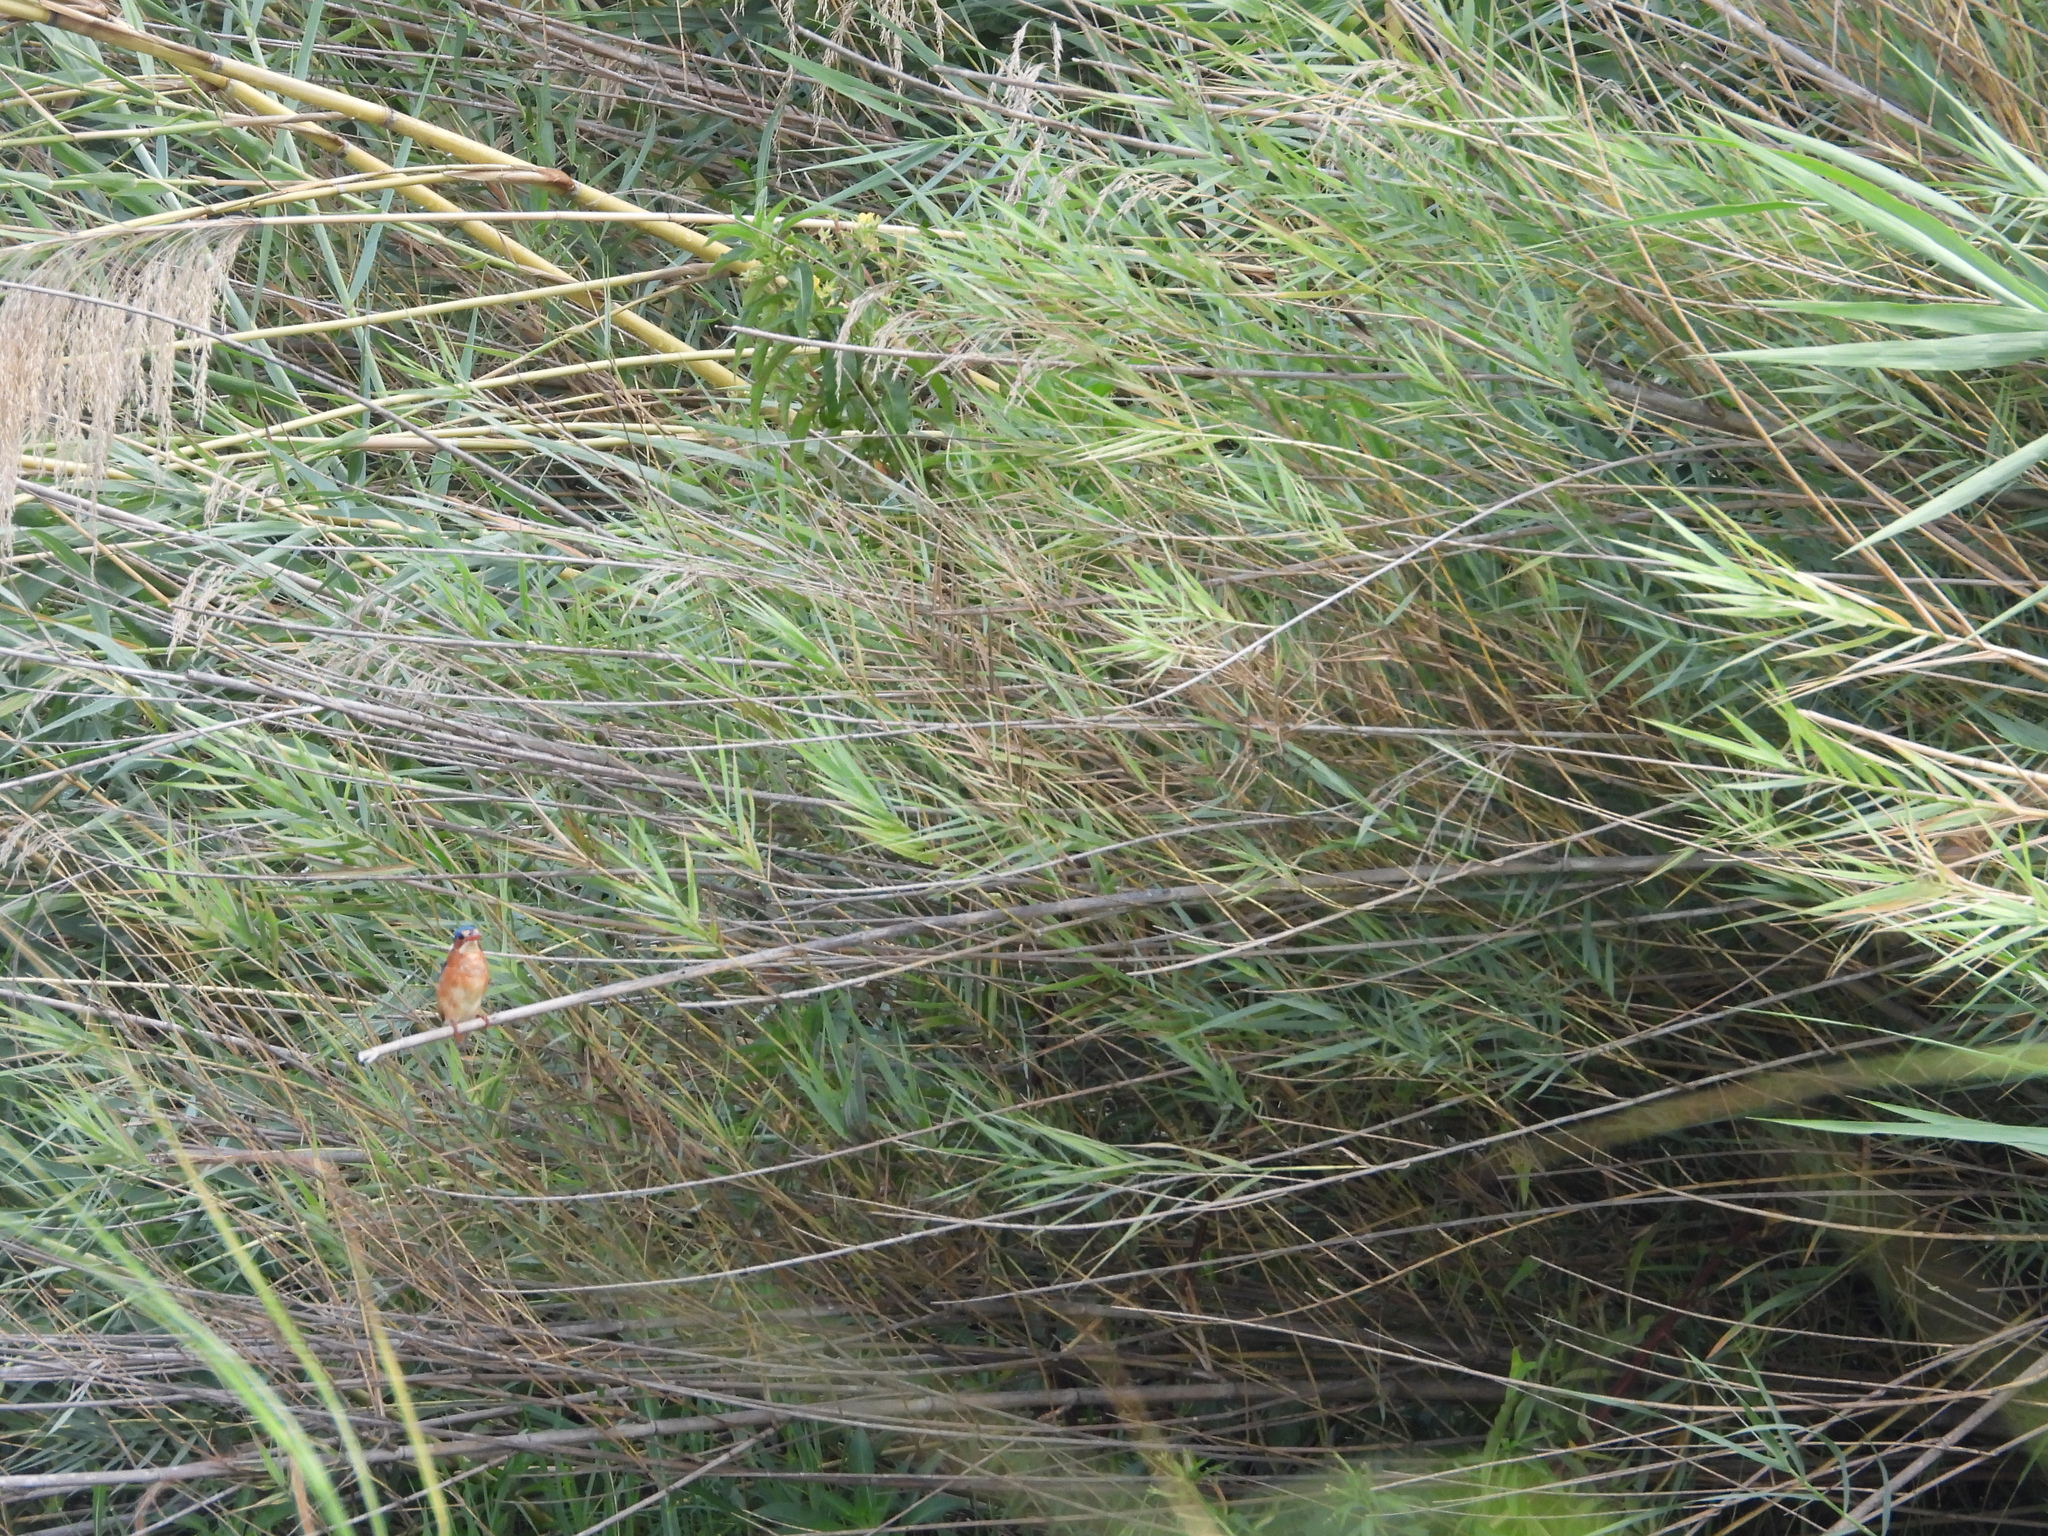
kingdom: Animalia
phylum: Chordata
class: Aves
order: Coraciiformes
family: Alcedinidae
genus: Corythornis
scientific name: Corythornis cristatus
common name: Malachite kingfisher
